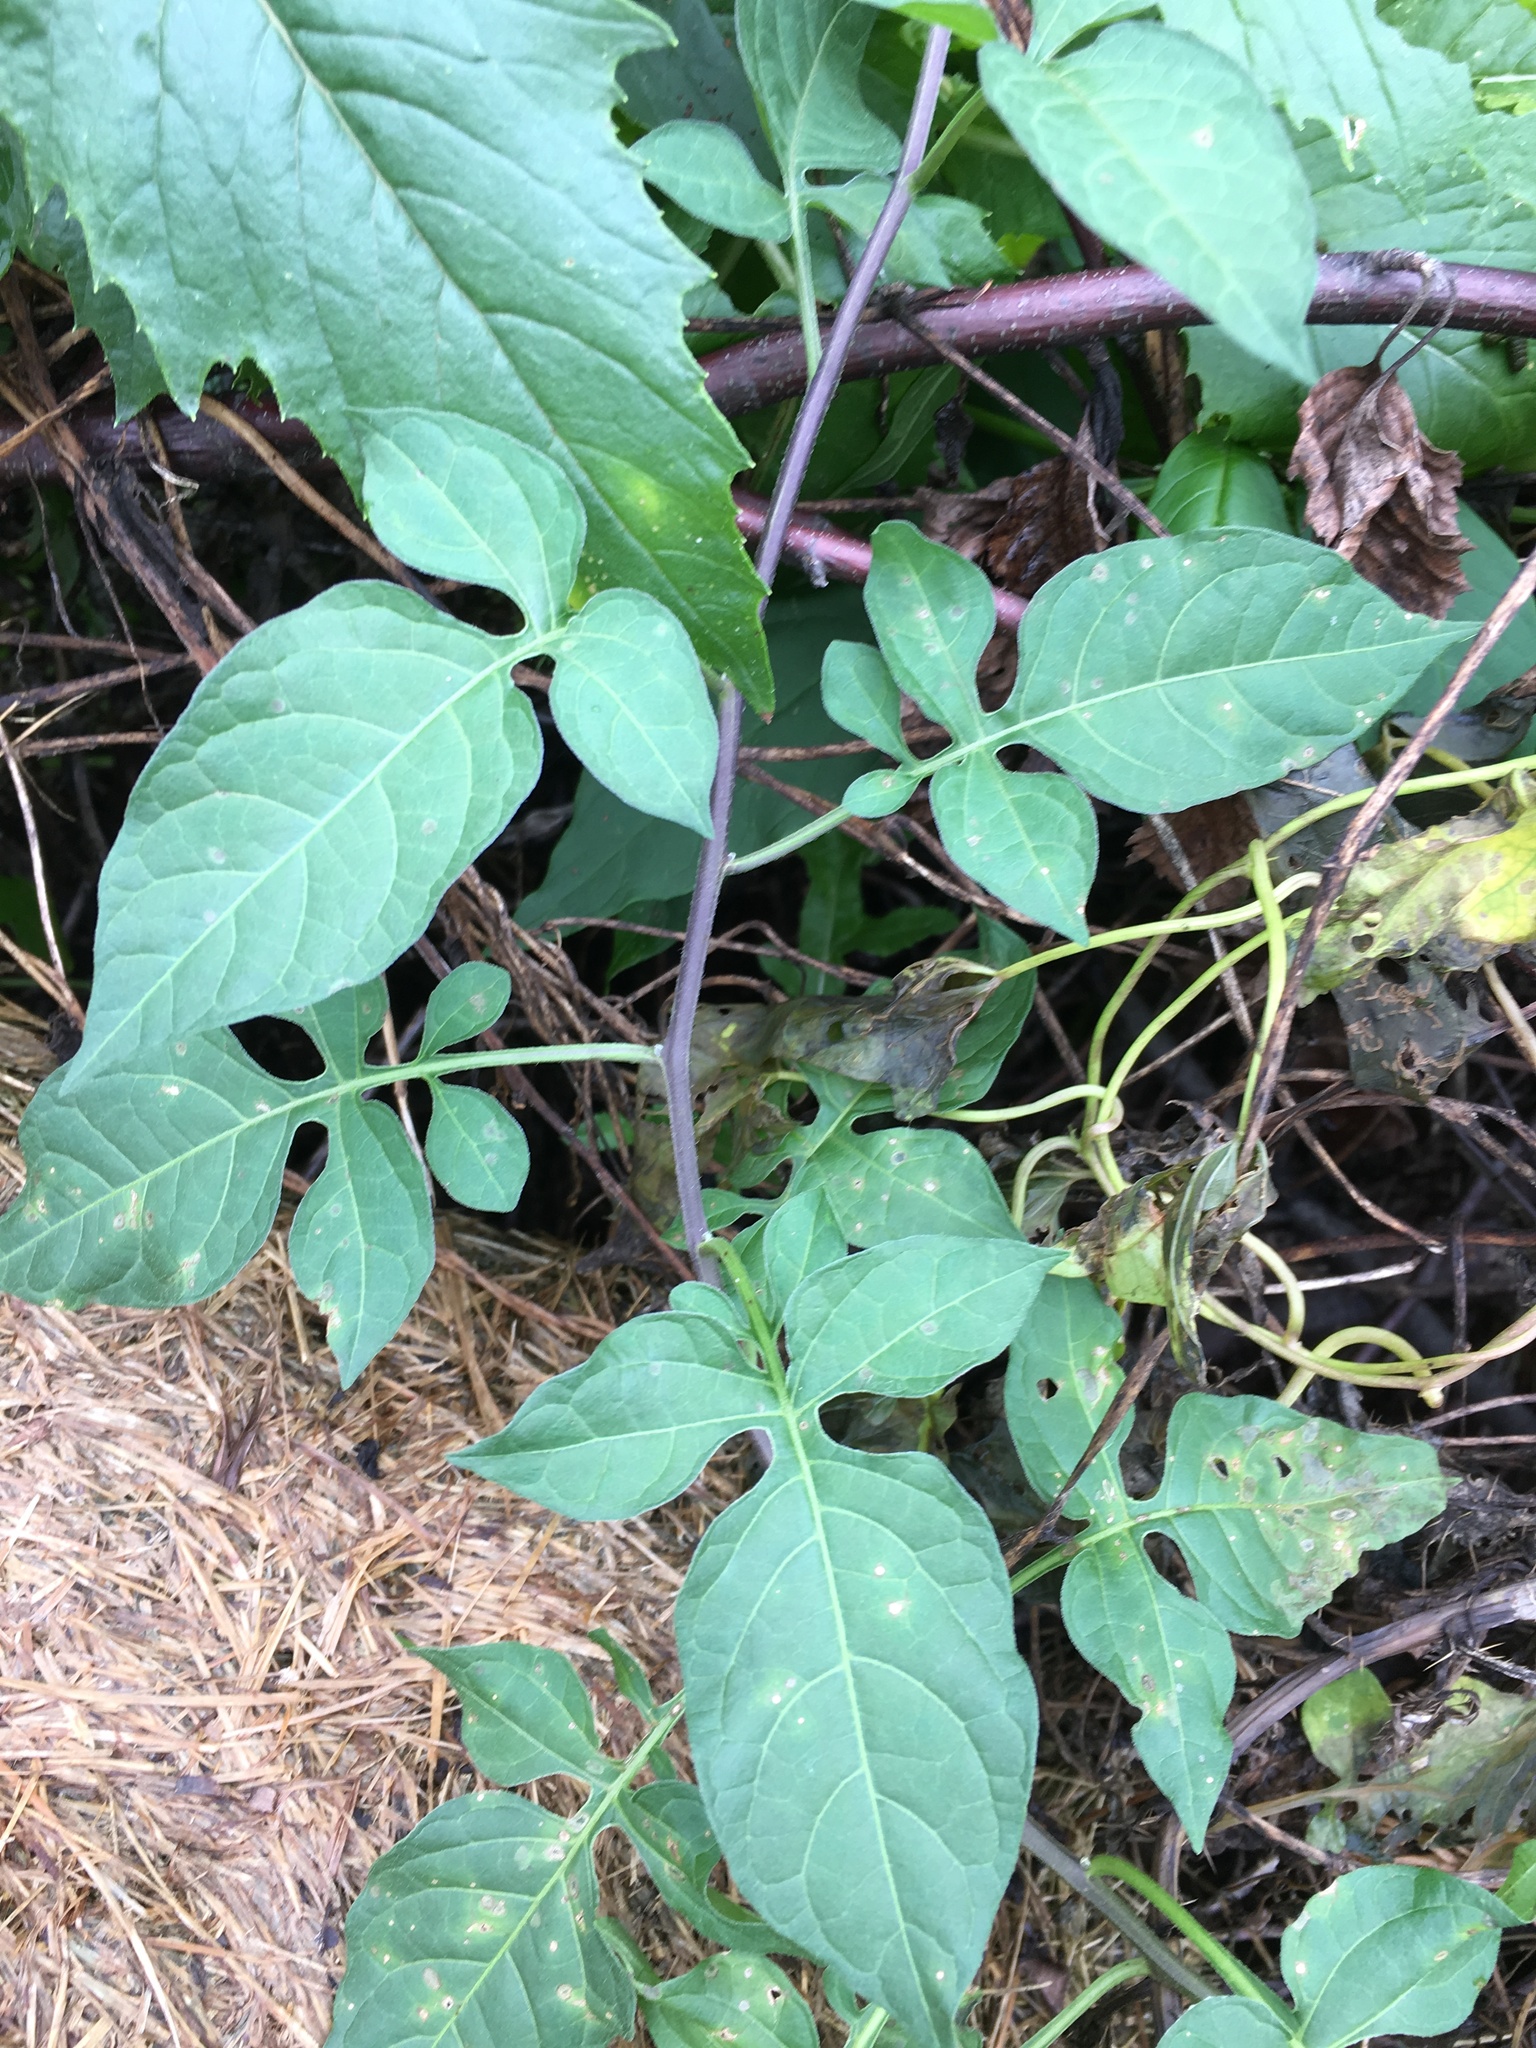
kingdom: Plantae
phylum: Tracheophyta
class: Magnoliopsida
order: Solanales
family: Solanaceae
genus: Solanum
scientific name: Solanum dulcamara
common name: Climbing nightshade
